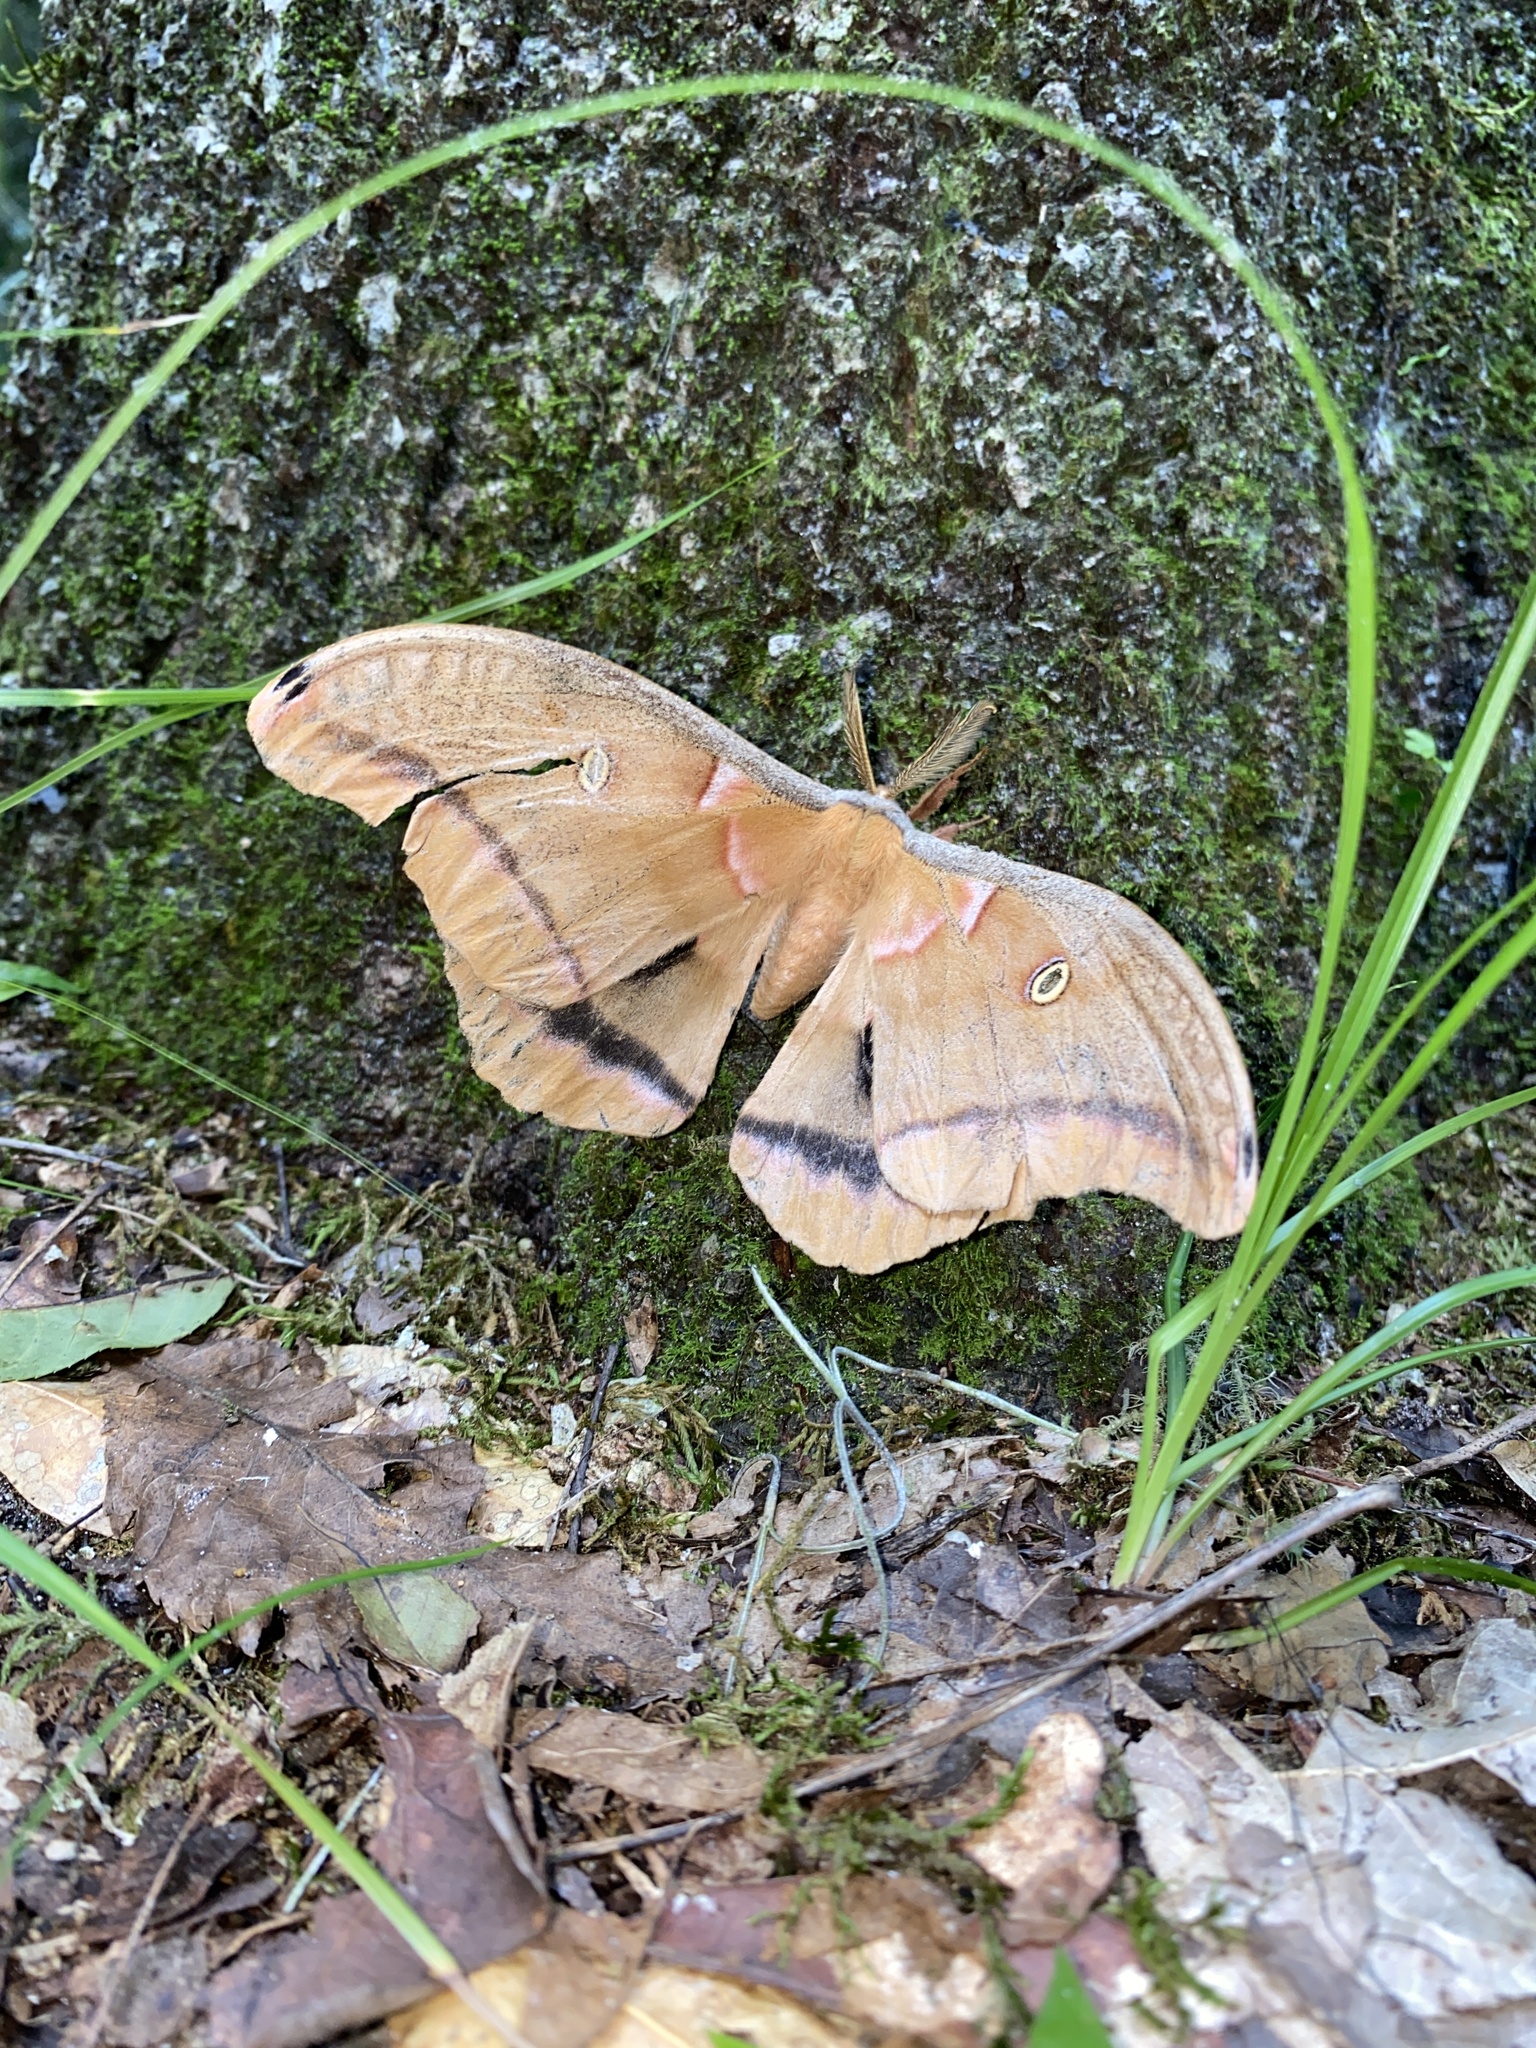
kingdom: Animalia
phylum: Arthropoda
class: Insecta
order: Lepidoptera
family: Saturniidae
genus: Antheraea
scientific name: Antheraea polyphemus
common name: Polyphemus moth
